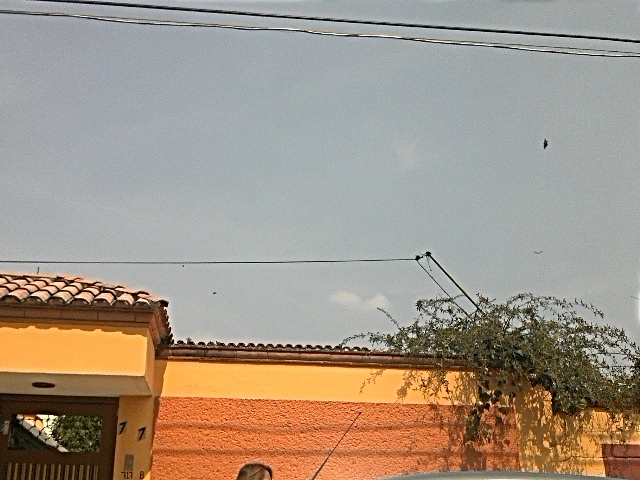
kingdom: Animalia
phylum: Arthropoda
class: Insecta
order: Lepidoptera
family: Nymphalidae
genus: Danaus
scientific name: Danaus plexippus
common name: Monarch
